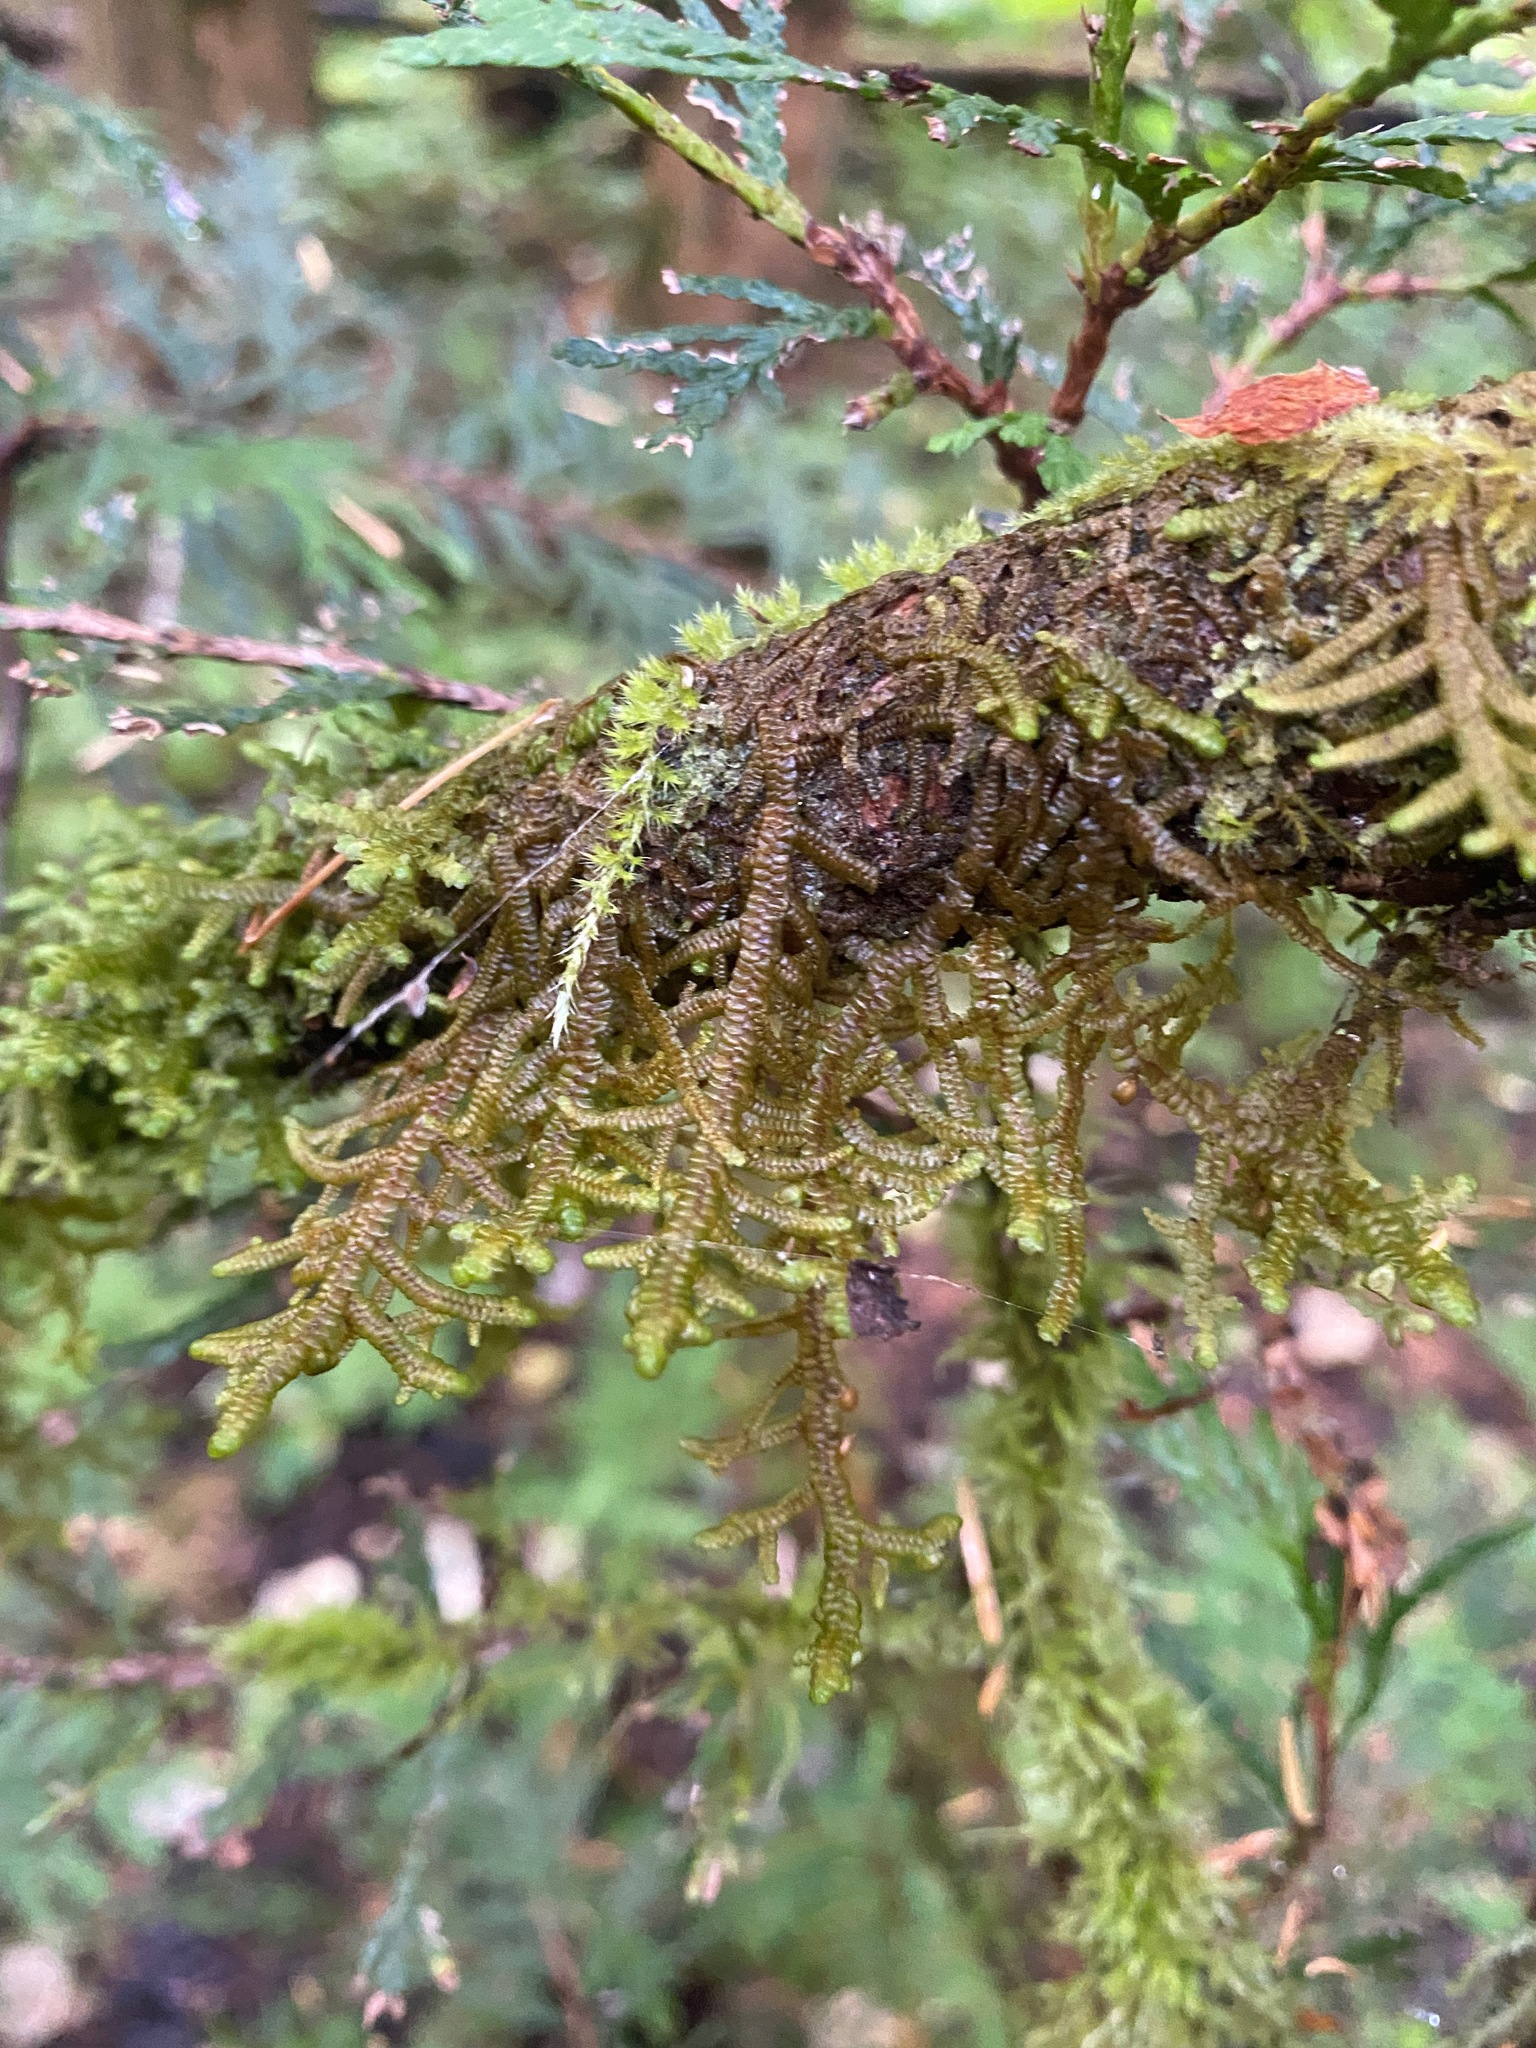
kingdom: Plantae
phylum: Marchantiophyta
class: Jungermanniopsida
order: Porellales
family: Porellaceae
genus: Porella
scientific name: Porella navicularis
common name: Tree ruffle liverwort
